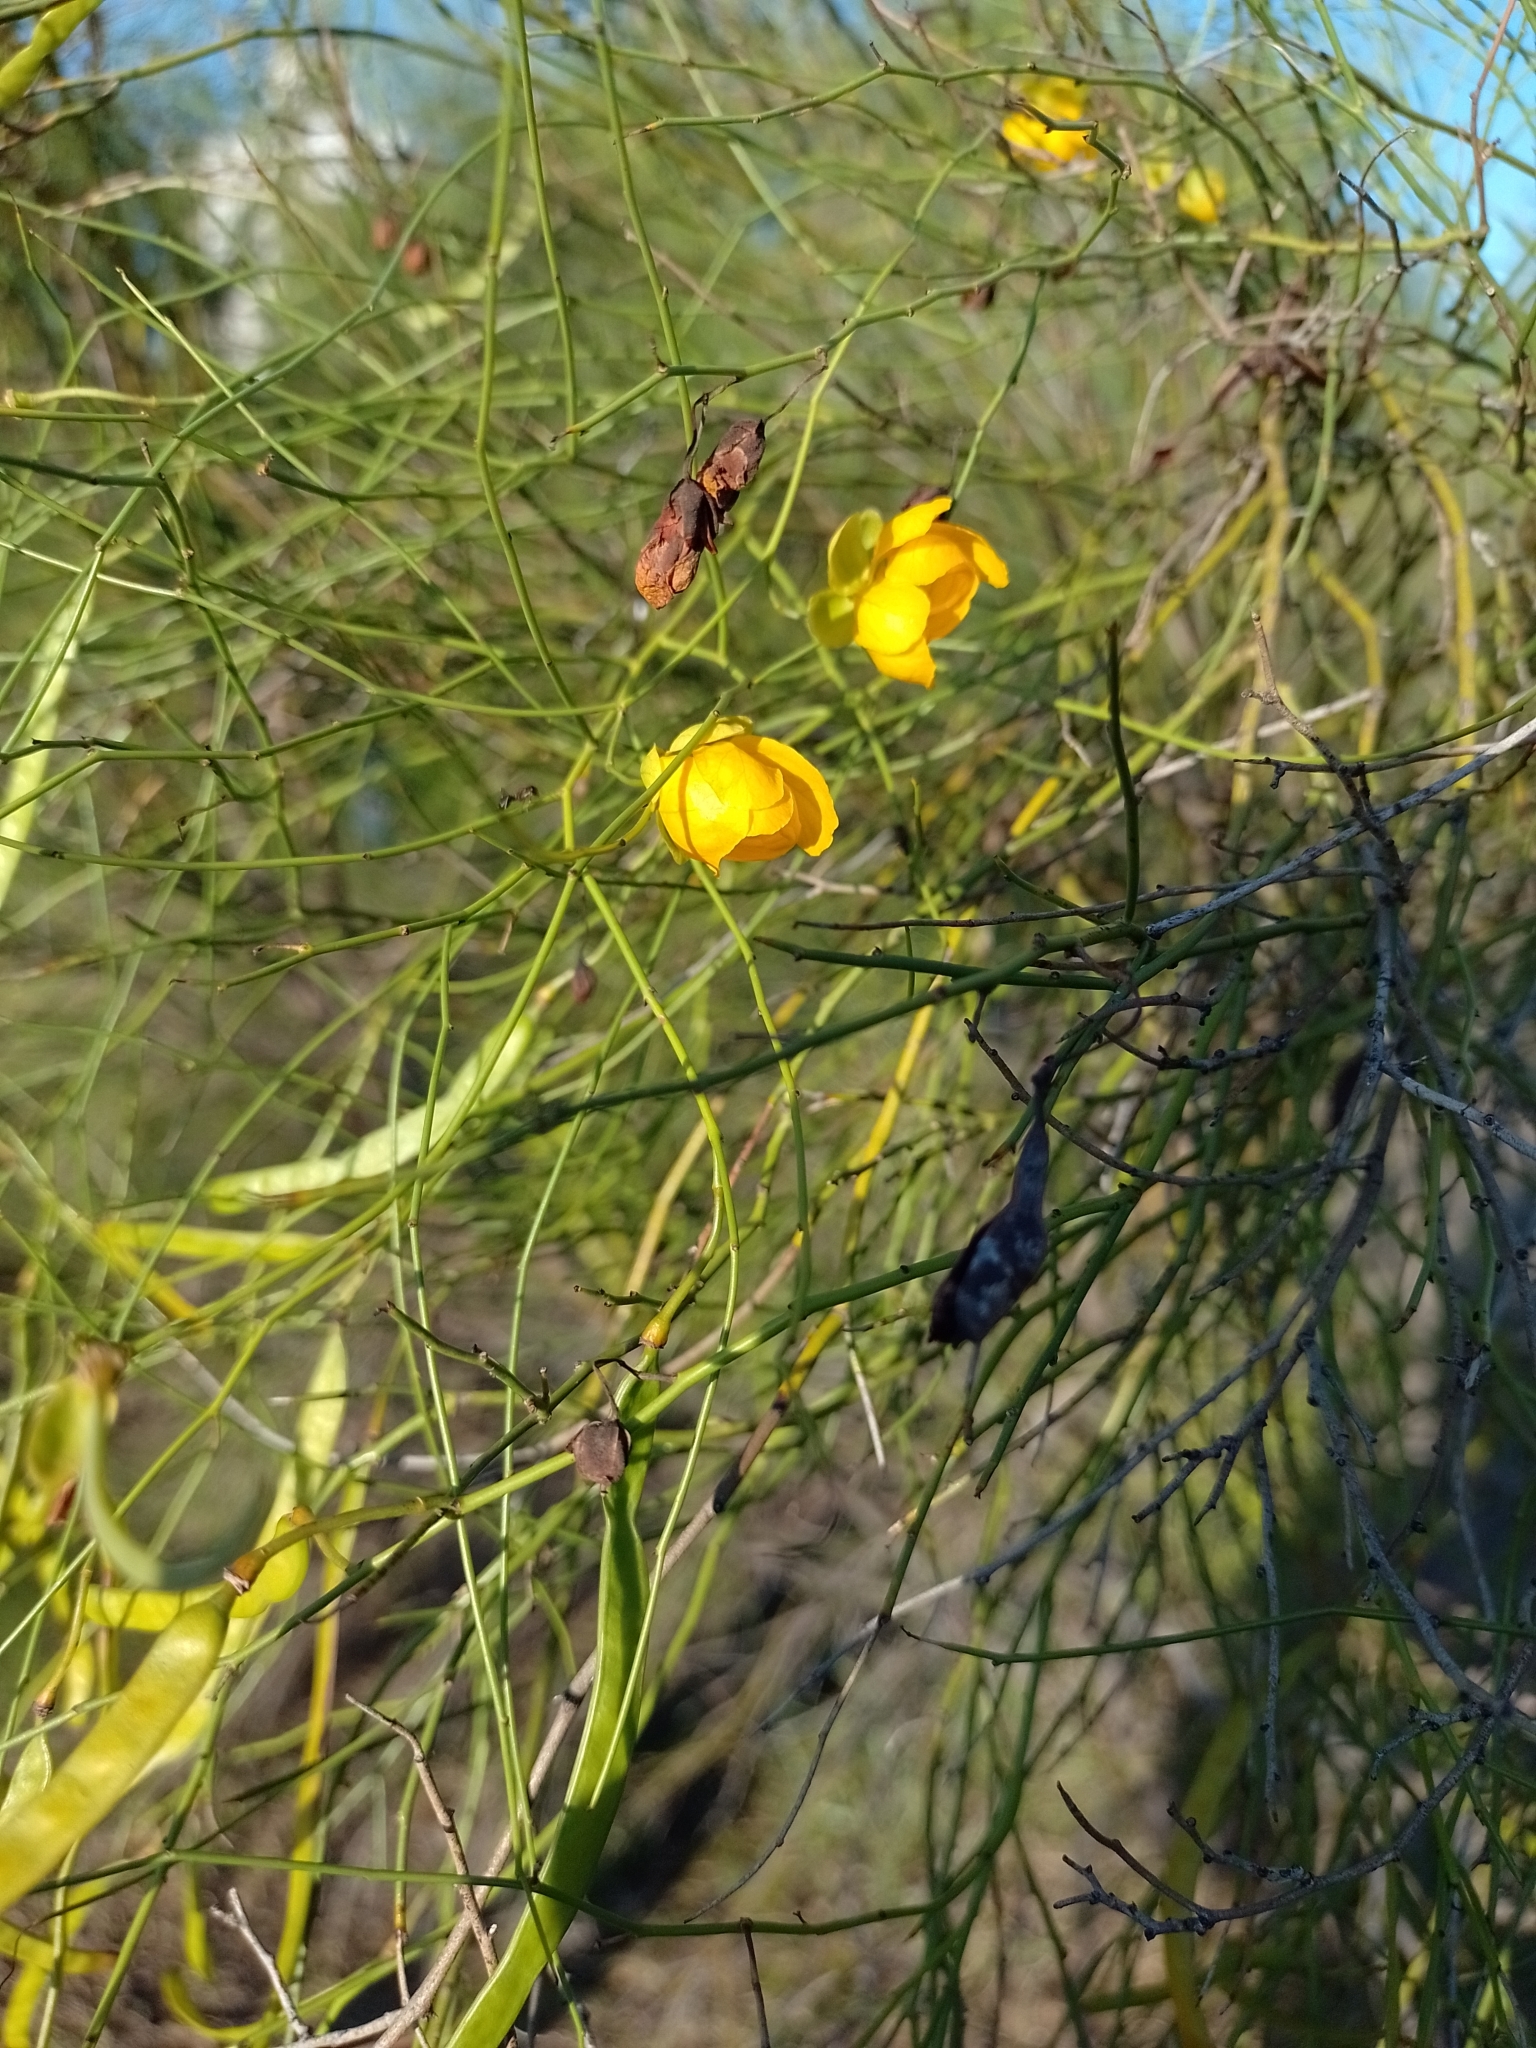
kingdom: Plantae
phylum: Tracheophyta
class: Magnoliopsida
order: Fabales
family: Fabaceae
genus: Senna
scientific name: Senna pachyrrhiza
